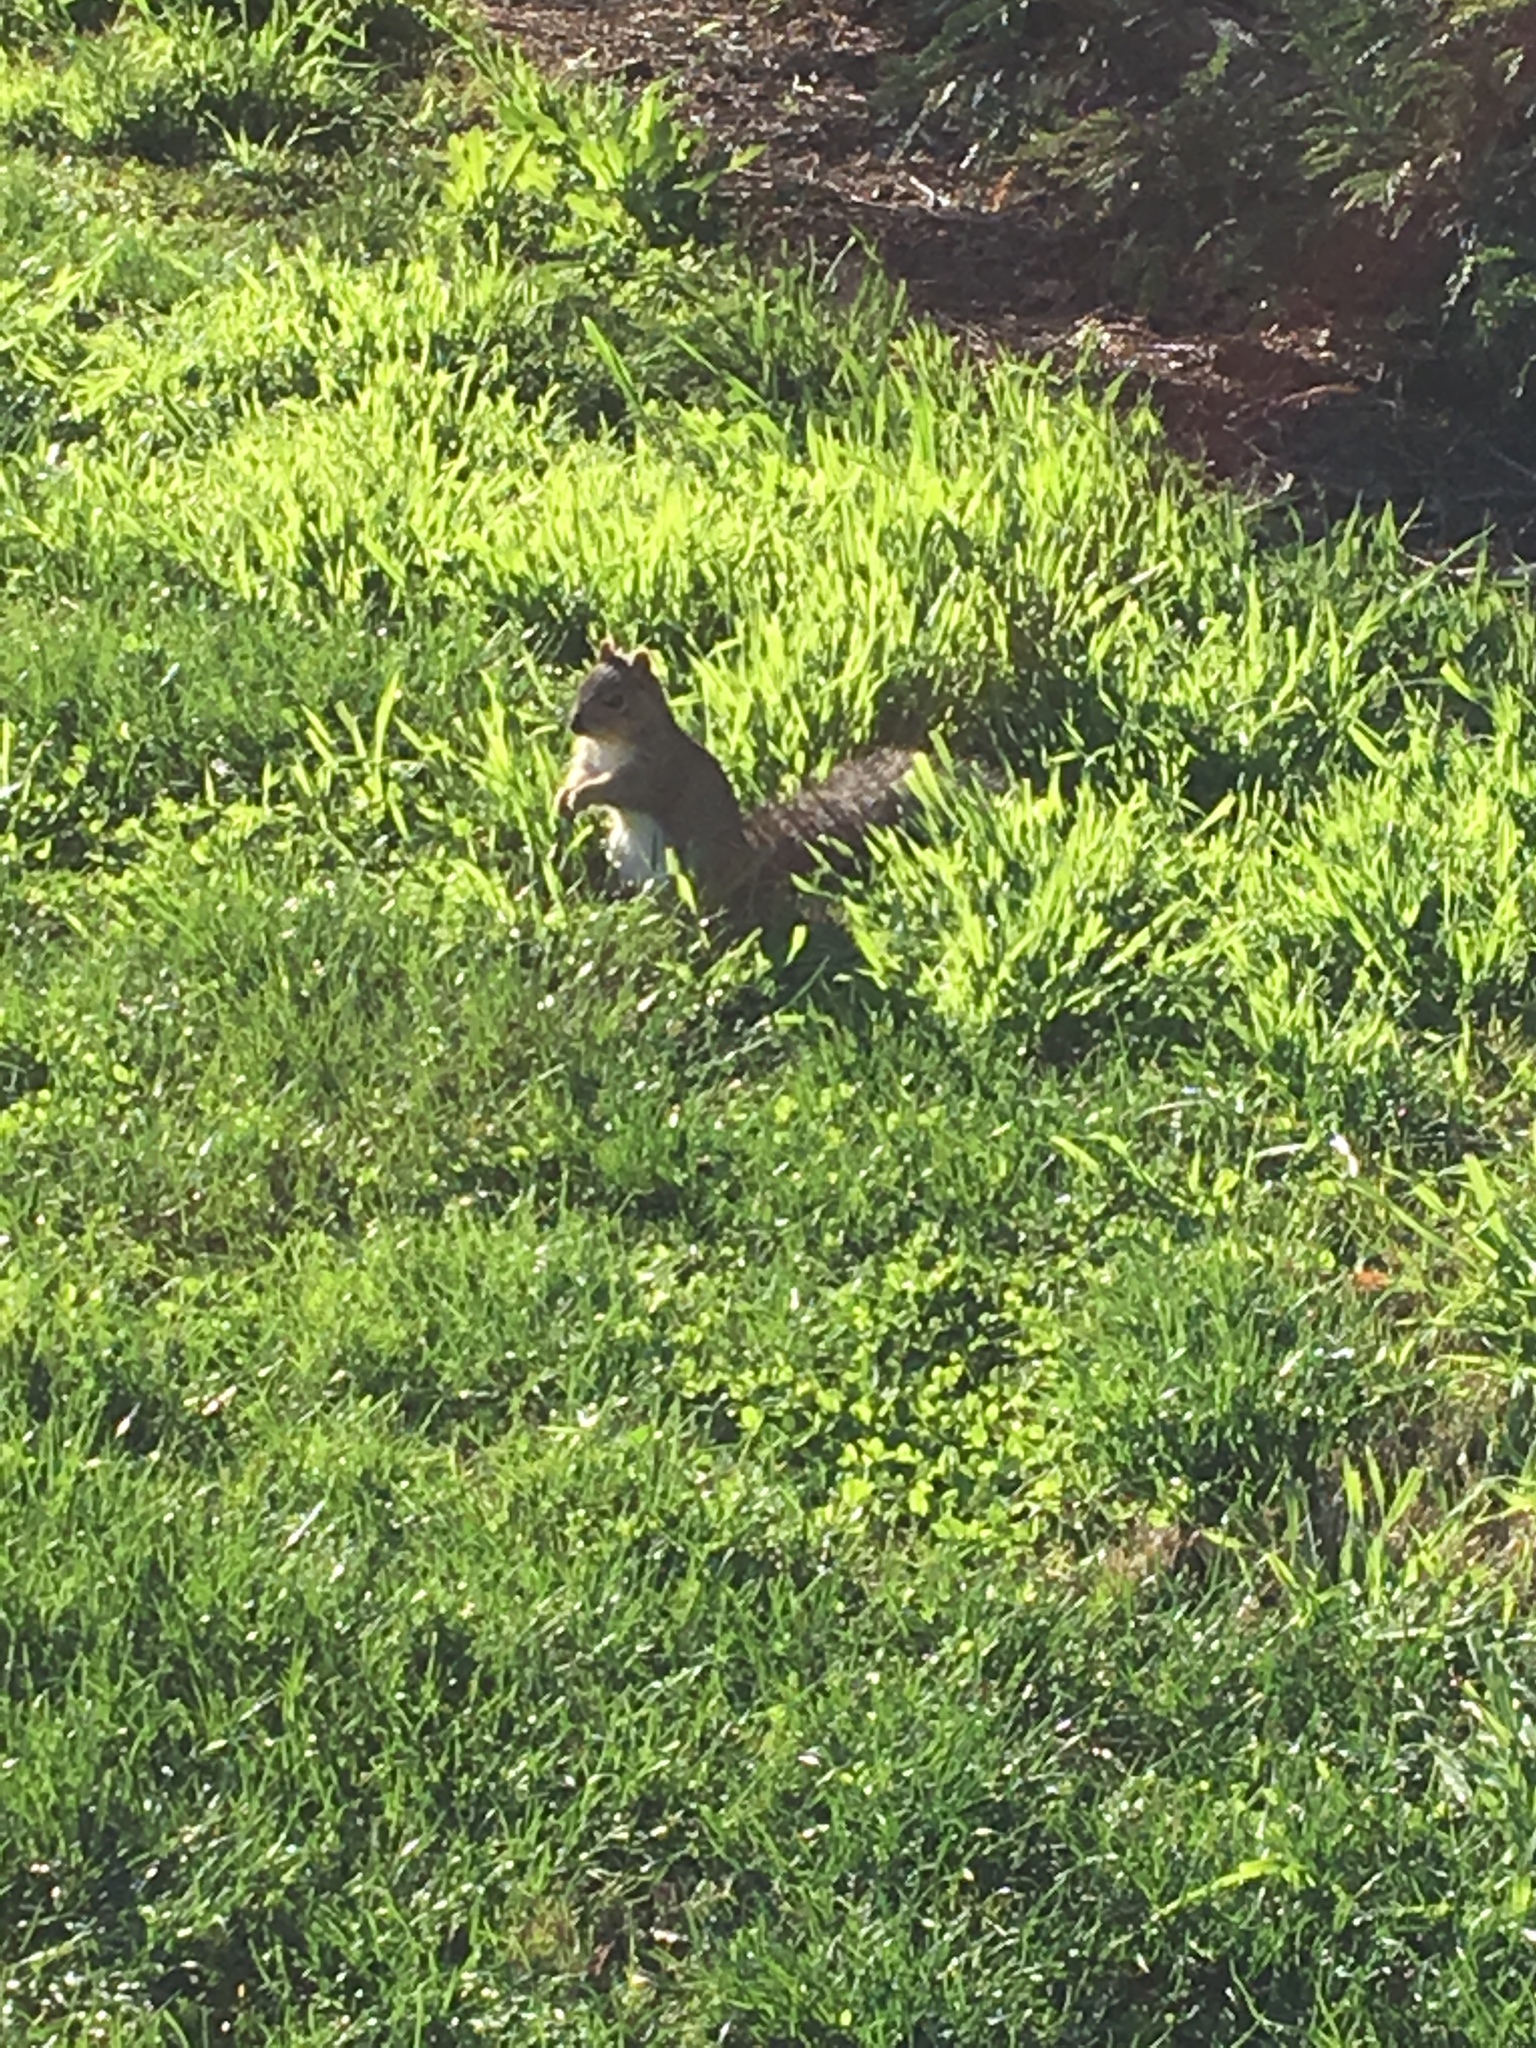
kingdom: Animalia
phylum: Chordata
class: Mammalia
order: Rodentia
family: Sciuridae
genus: Sciurus
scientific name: Sciurus niger
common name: Fox squirrel
